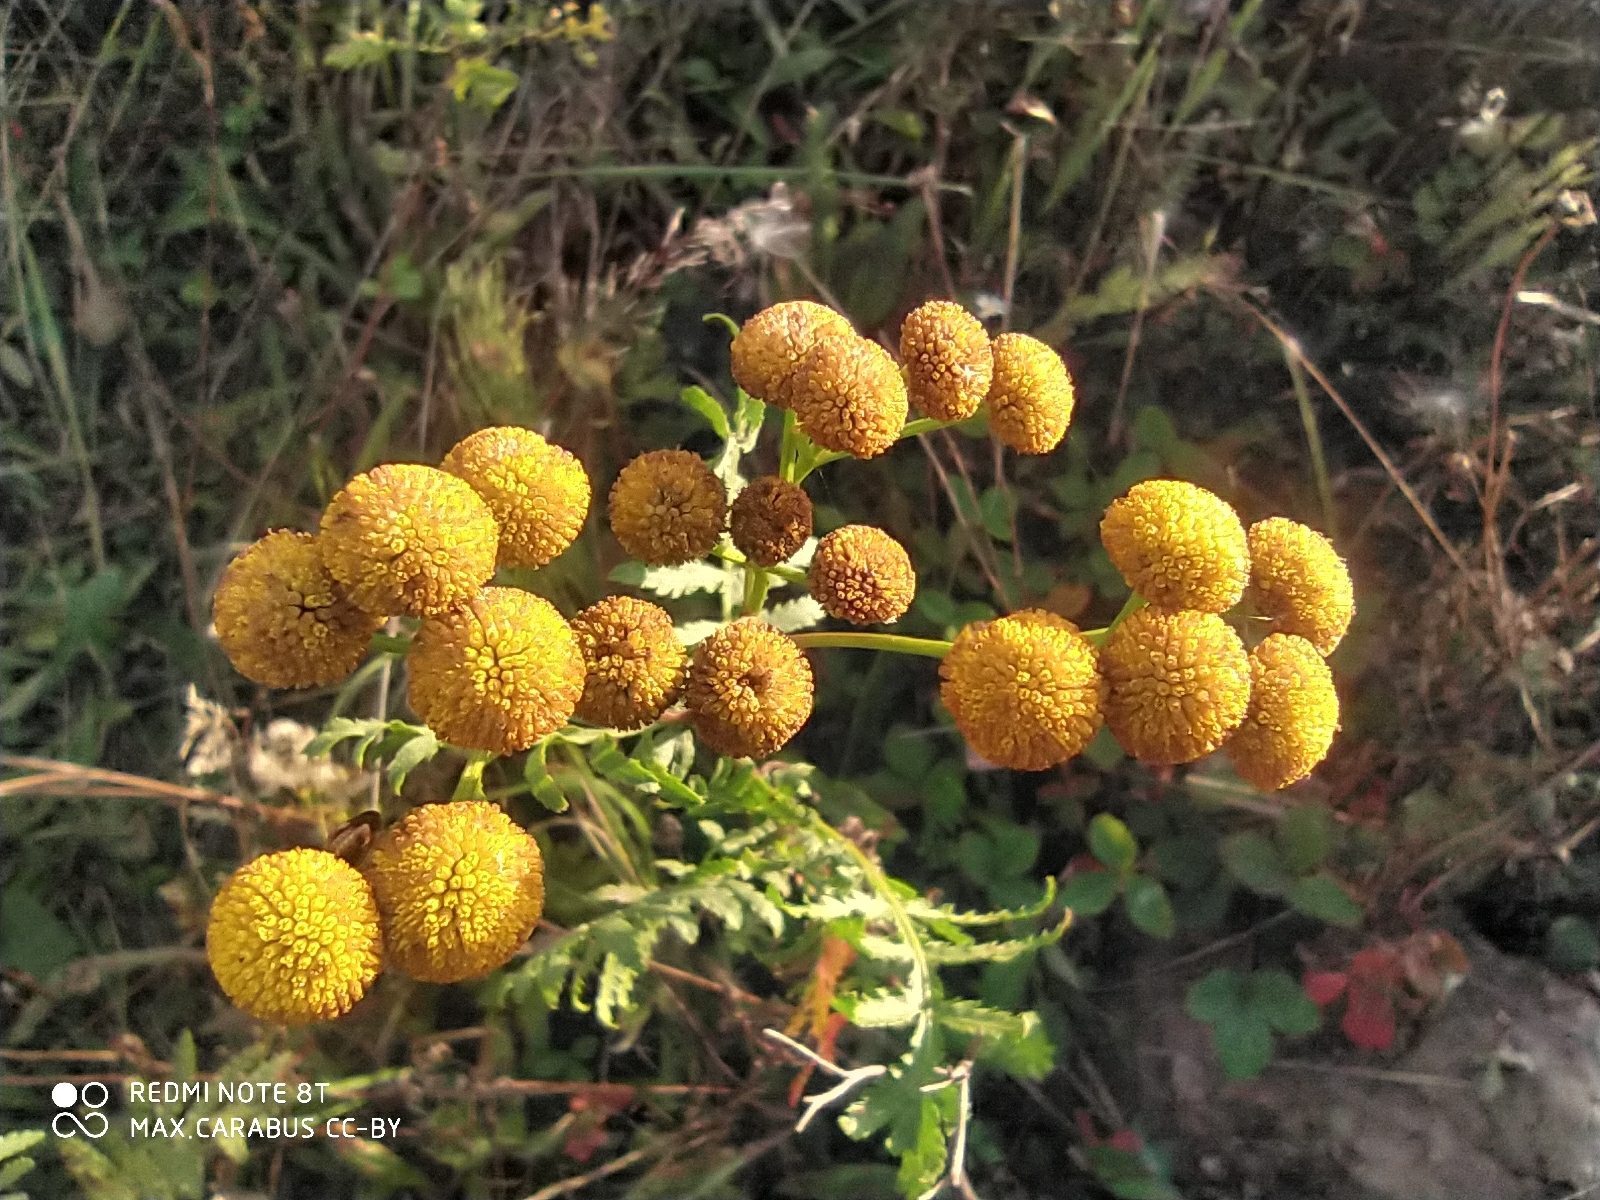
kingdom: Plantae
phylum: Tracheophyta
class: Magnoliopsida
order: Asterales
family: Asteraceae
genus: Tanacetum
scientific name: Tanacetum vulgare
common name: Common tansy
